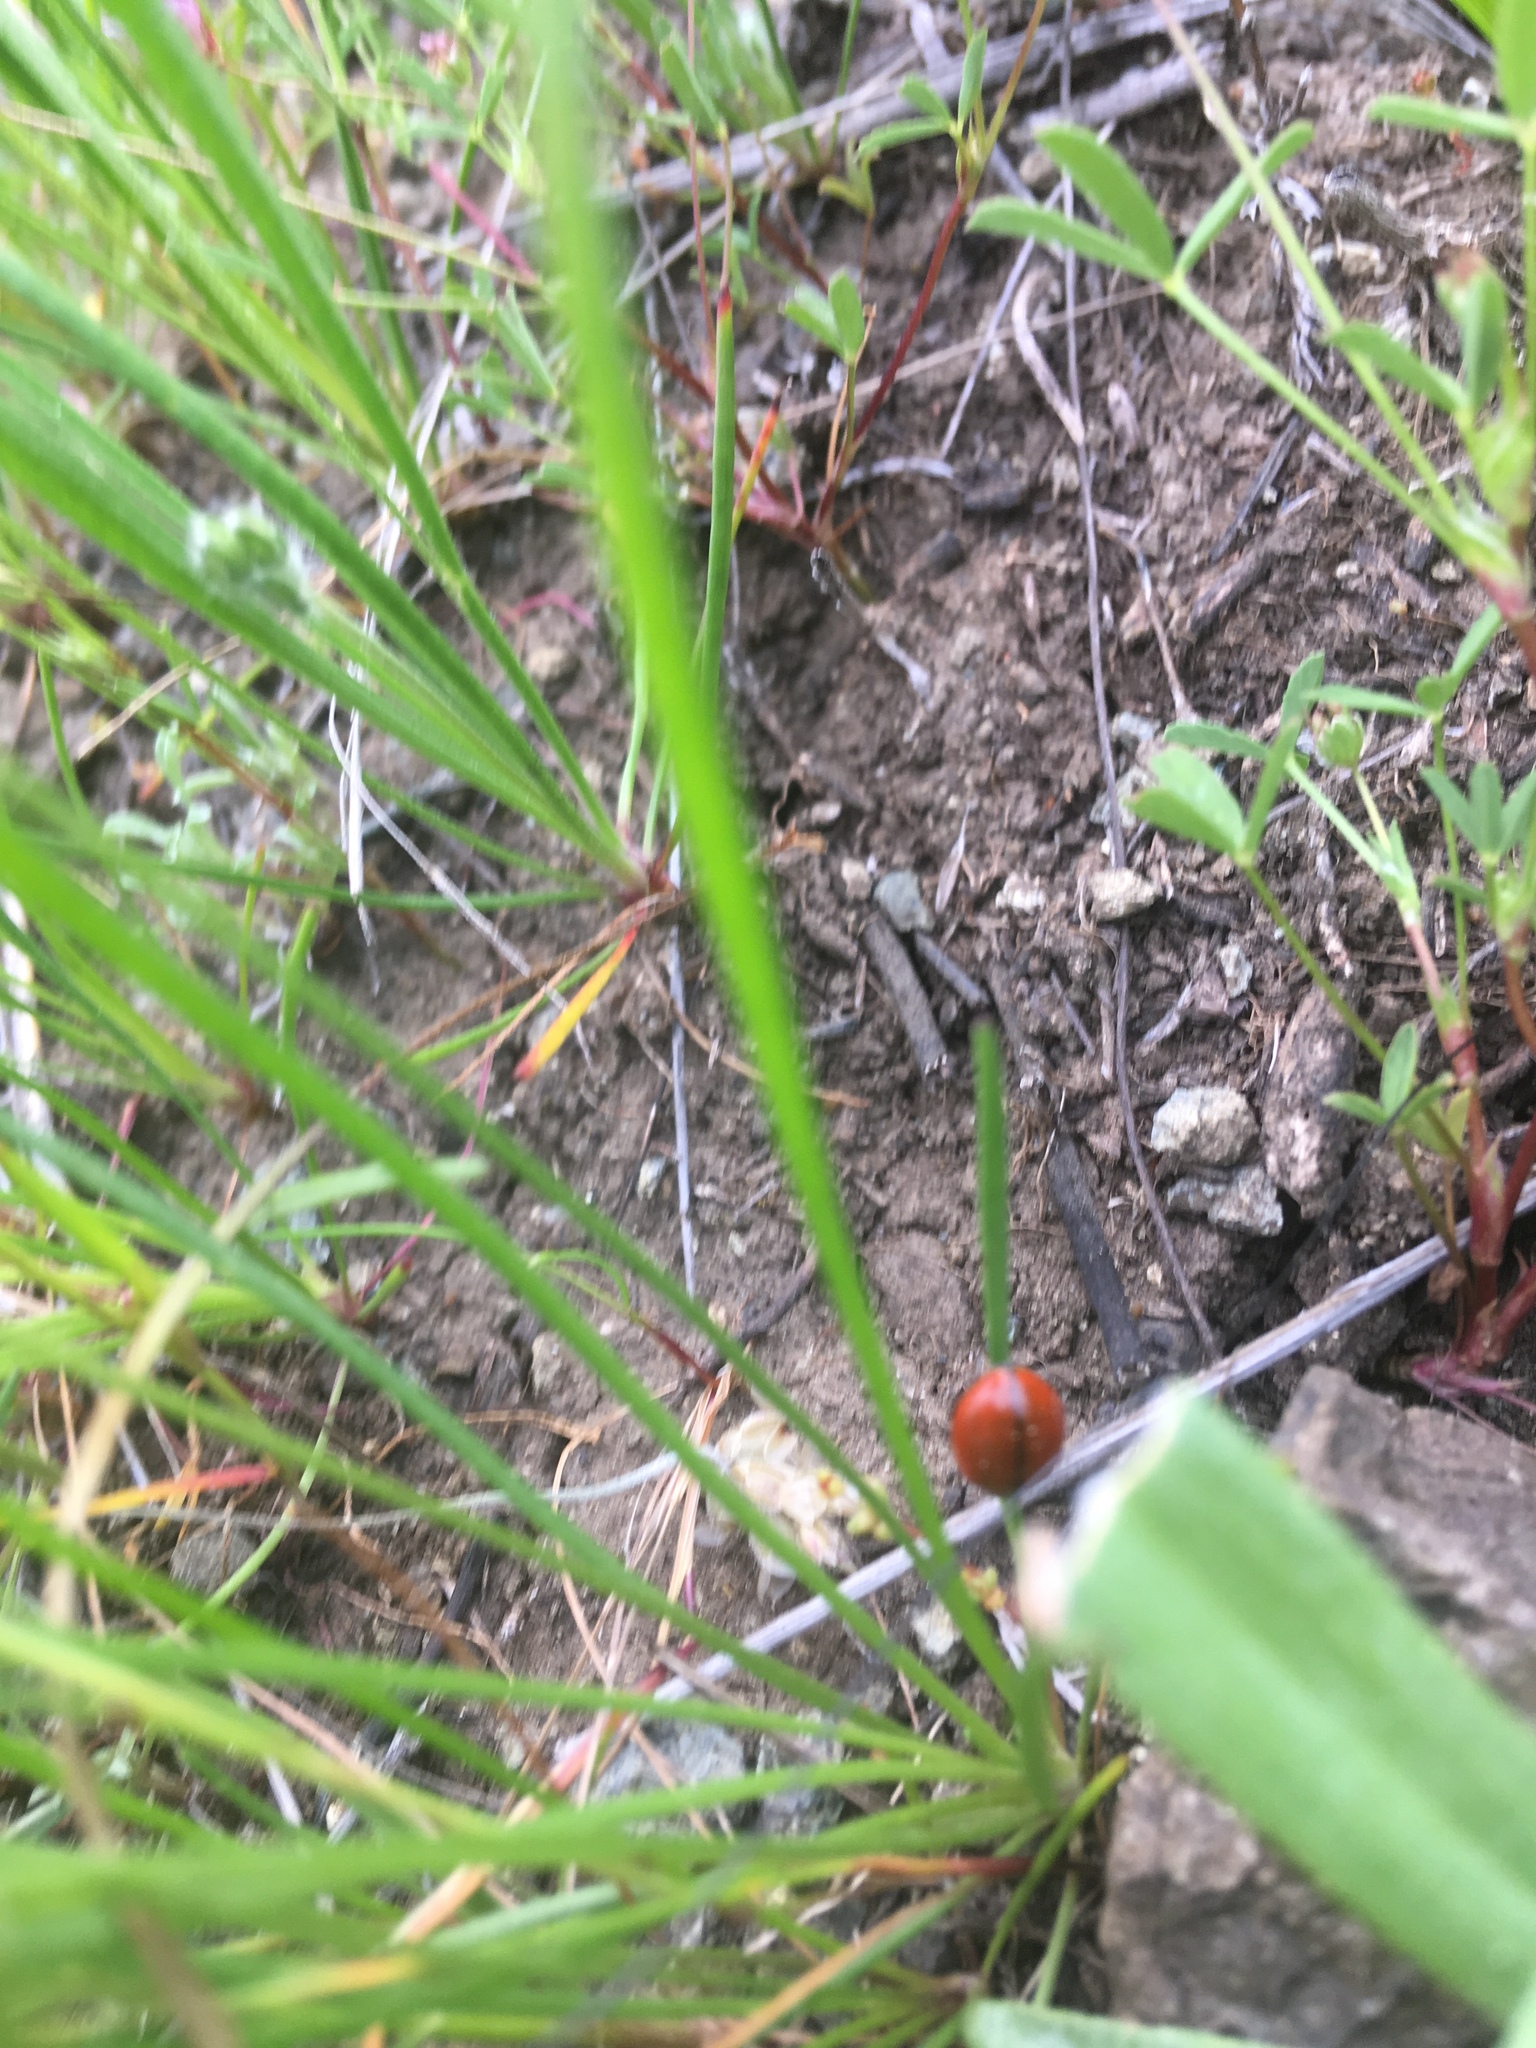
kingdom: Animalia
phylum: Arthropoda
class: Insecta
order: Coleoptera
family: Coccinellidae
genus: Coccinella
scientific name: Coccinella californica
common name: Lady beetle
